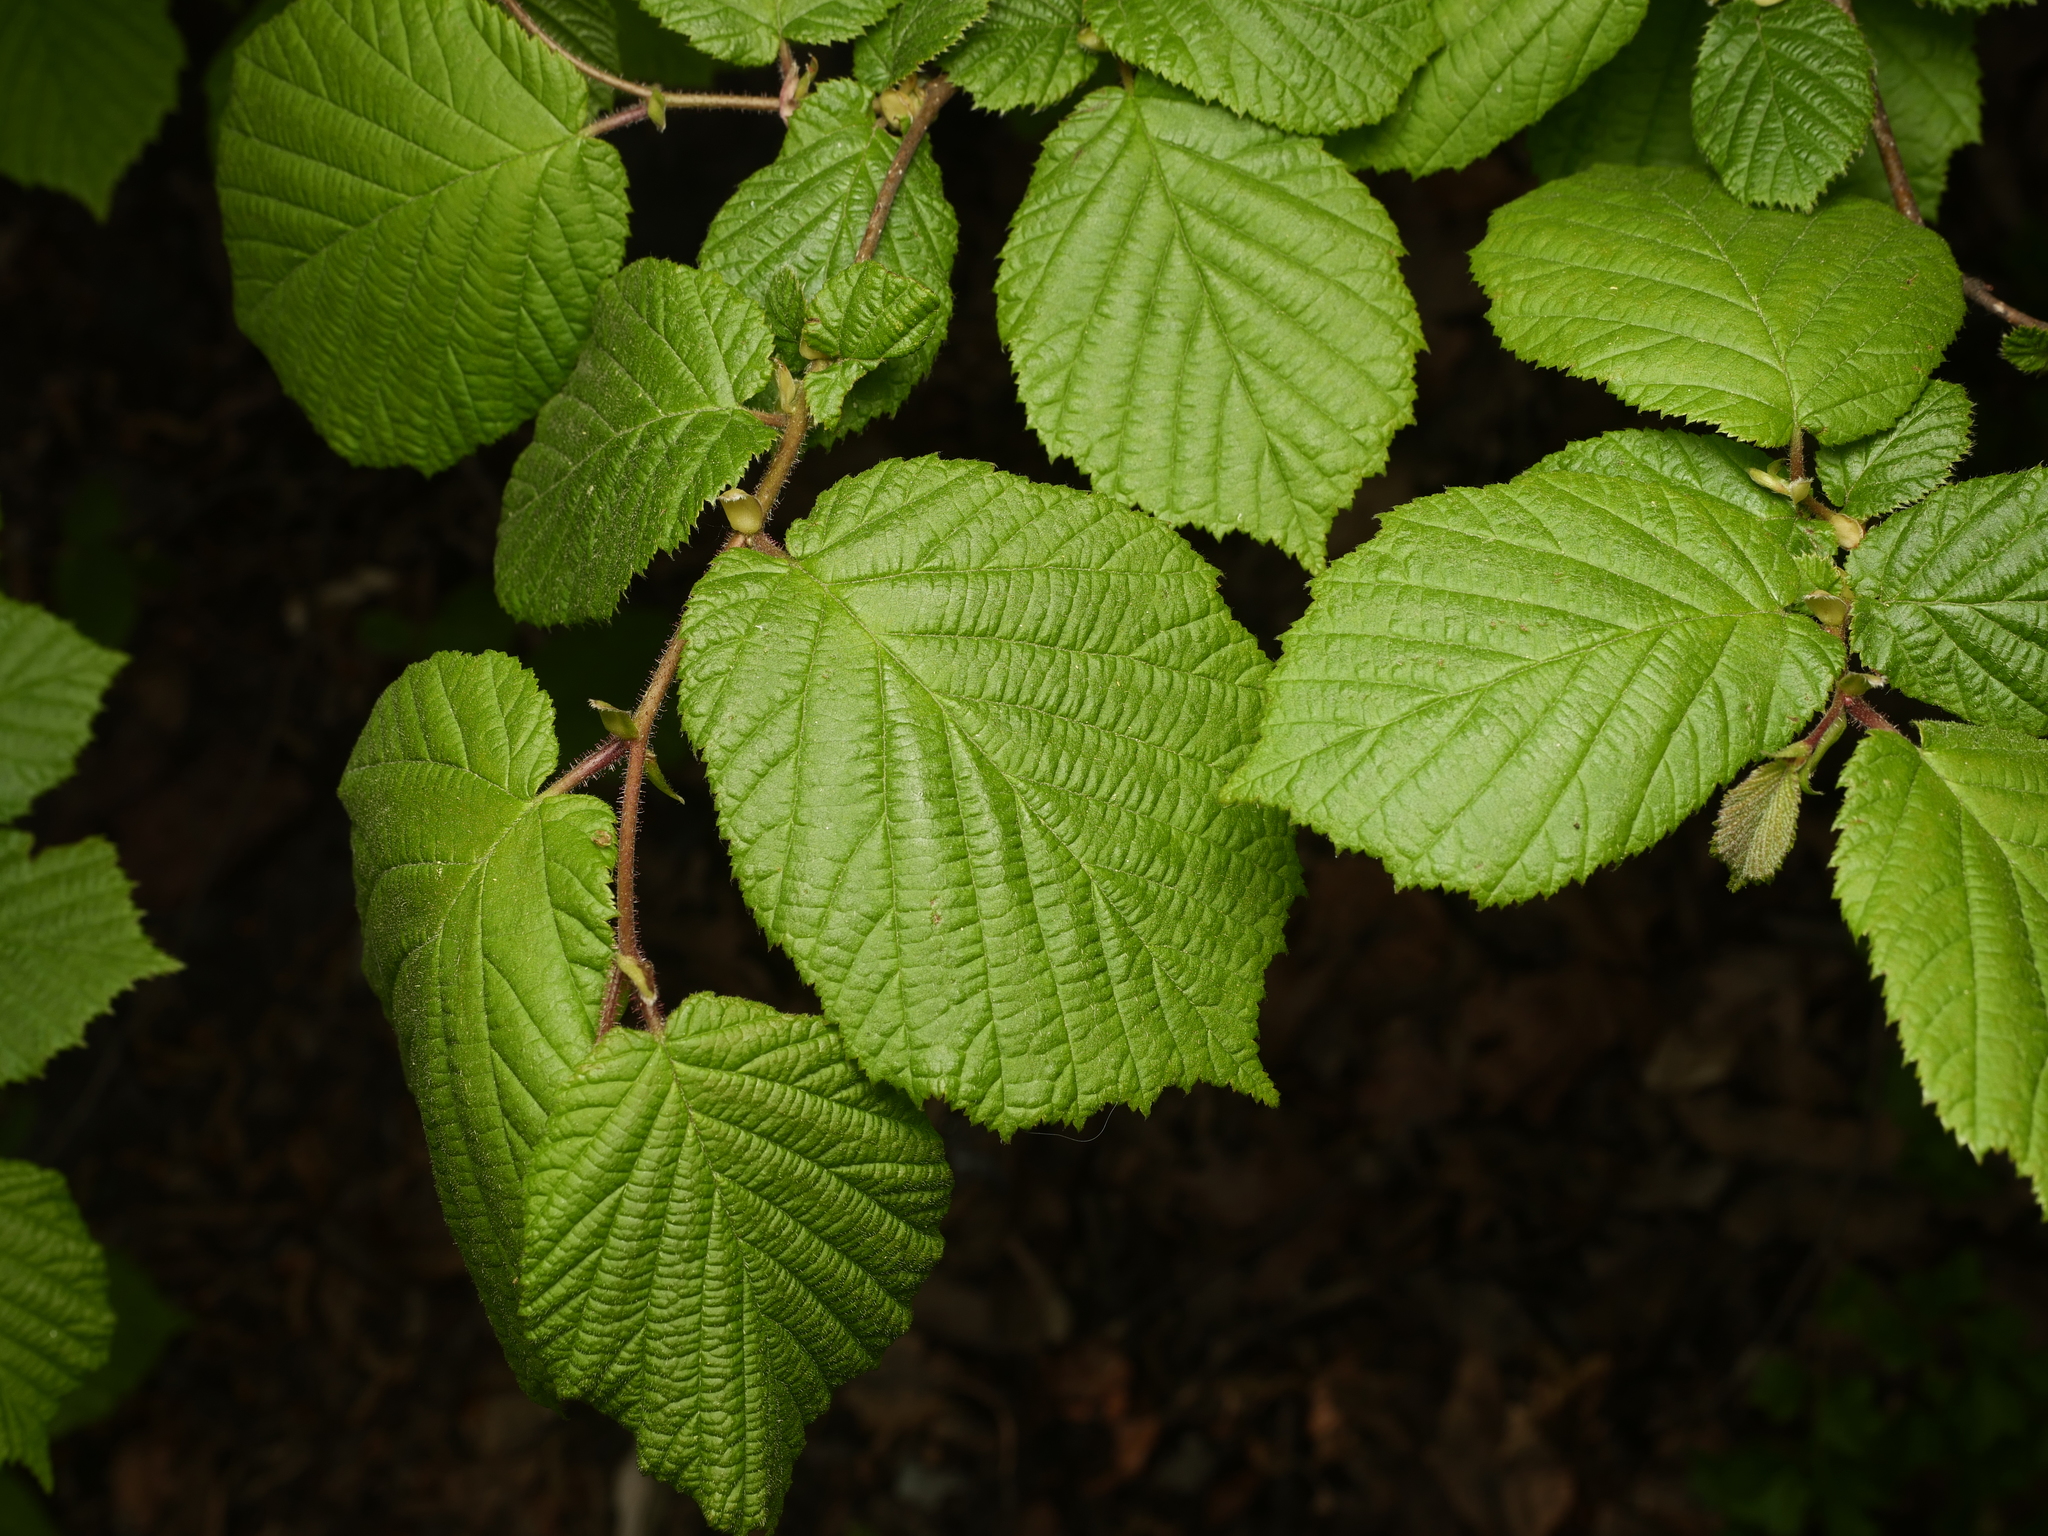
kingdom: Plantae
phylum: Tracheophyta
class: Magnoliopsida
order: Fagales
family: Betulaceae
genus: Corylus
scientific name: Corylus avellana
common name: European hazel
